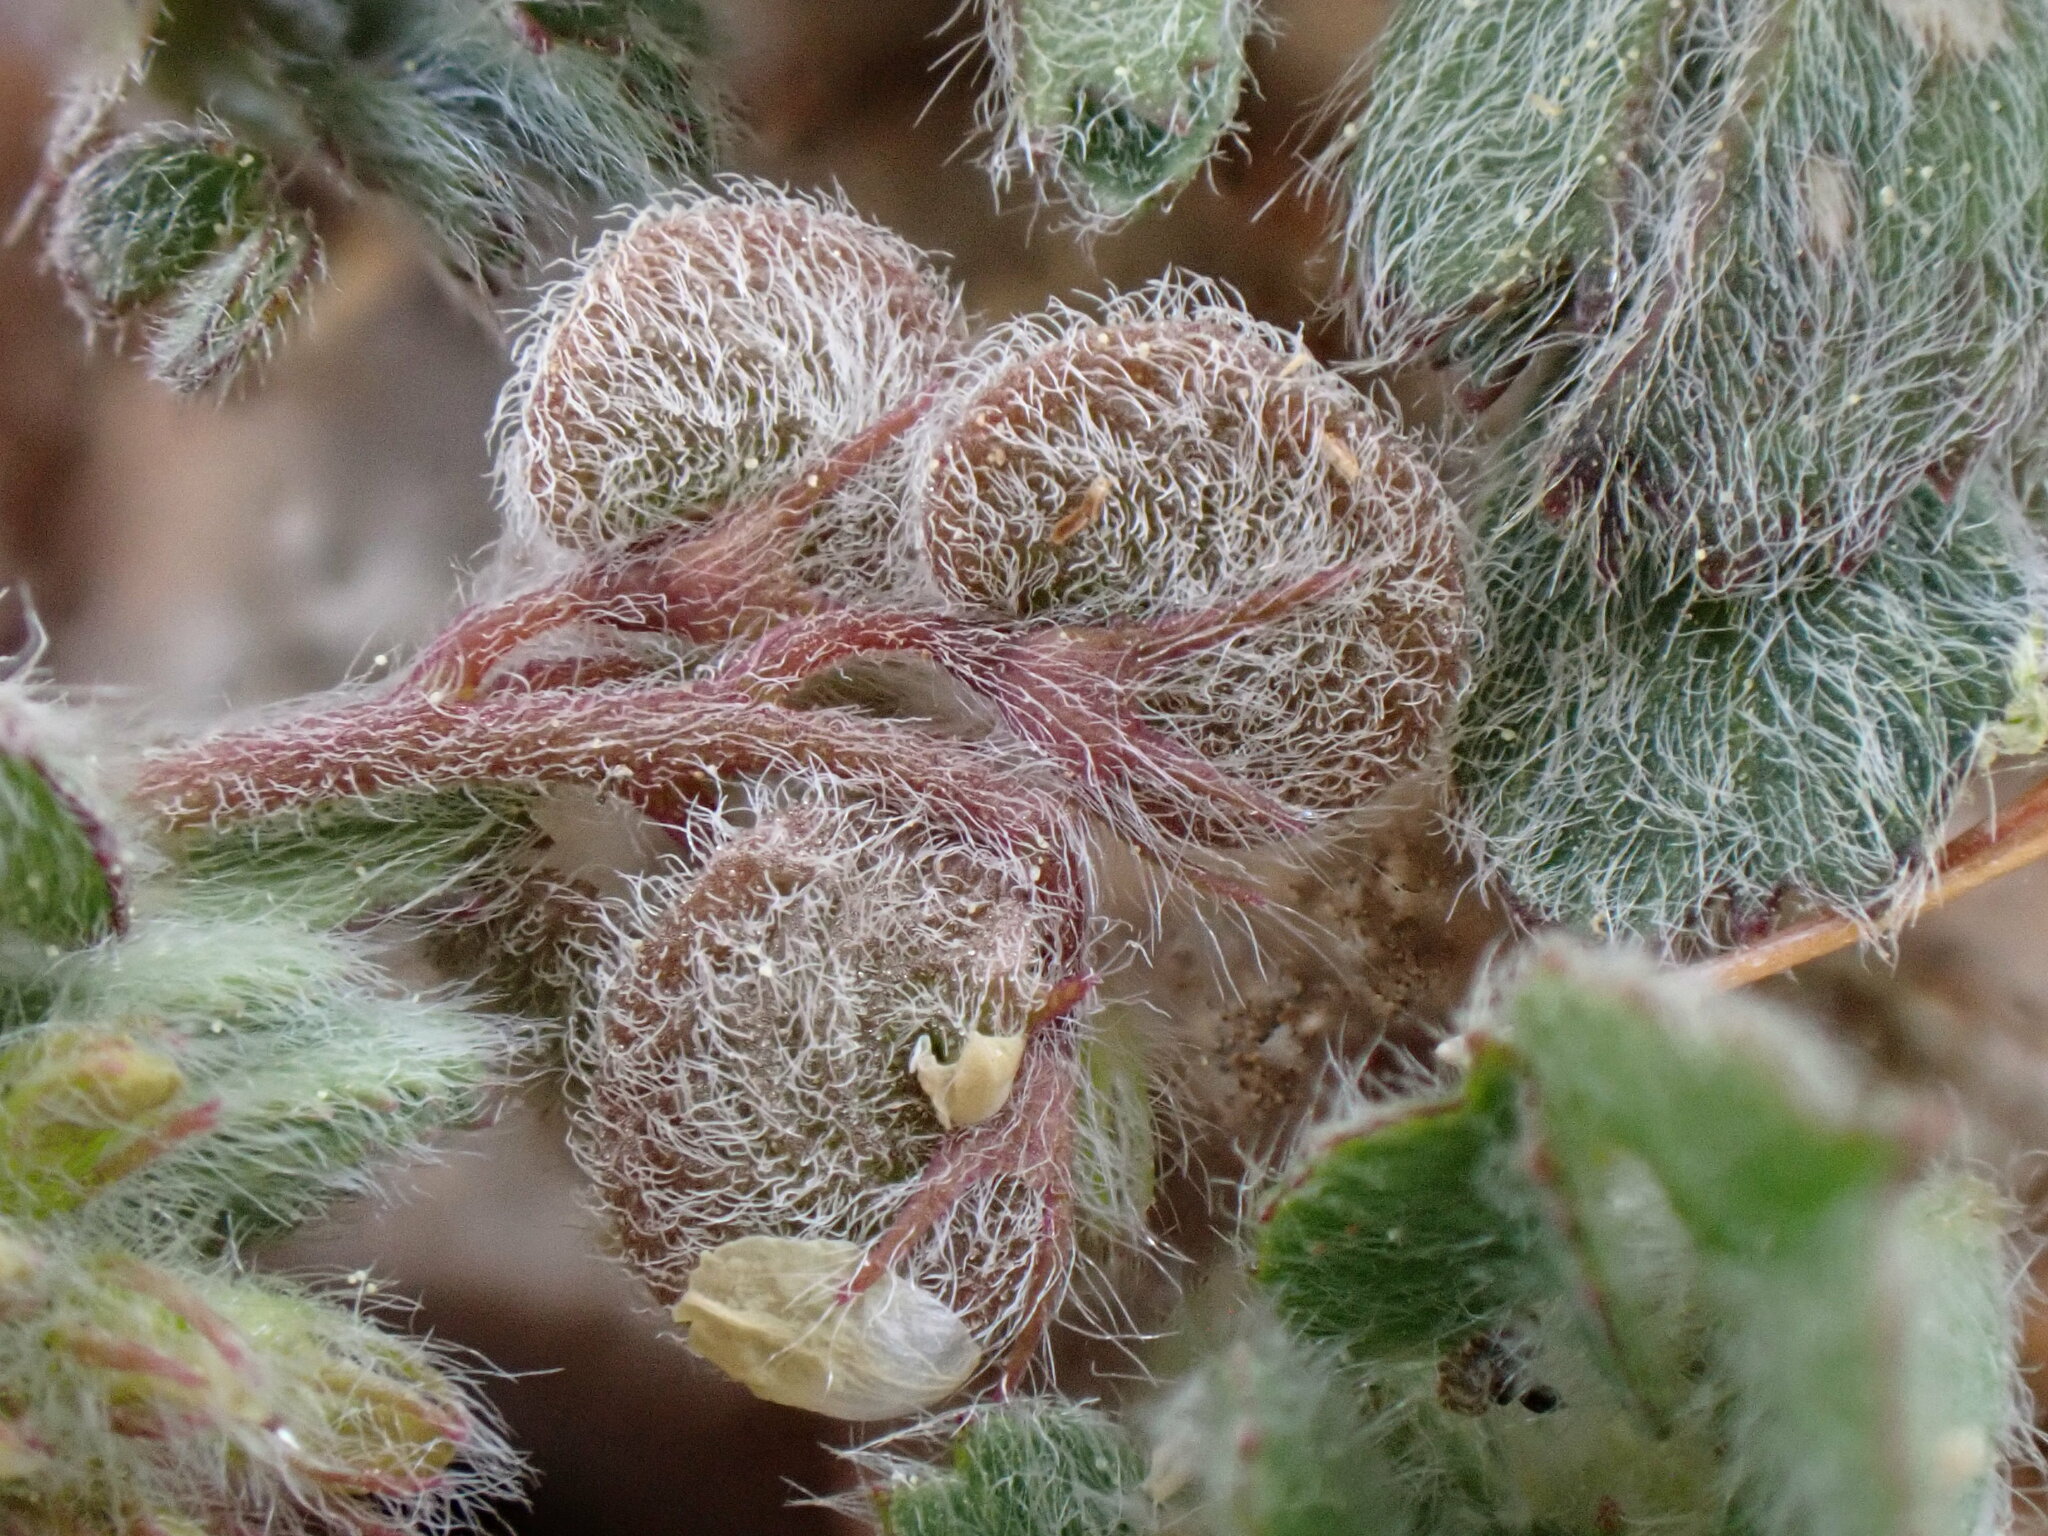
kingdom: Plantae
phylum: Tracheophyta
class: Magnoliopsida
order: Fabales
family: Fabaceae
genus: Medicago
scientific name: Medicago secundiflora
